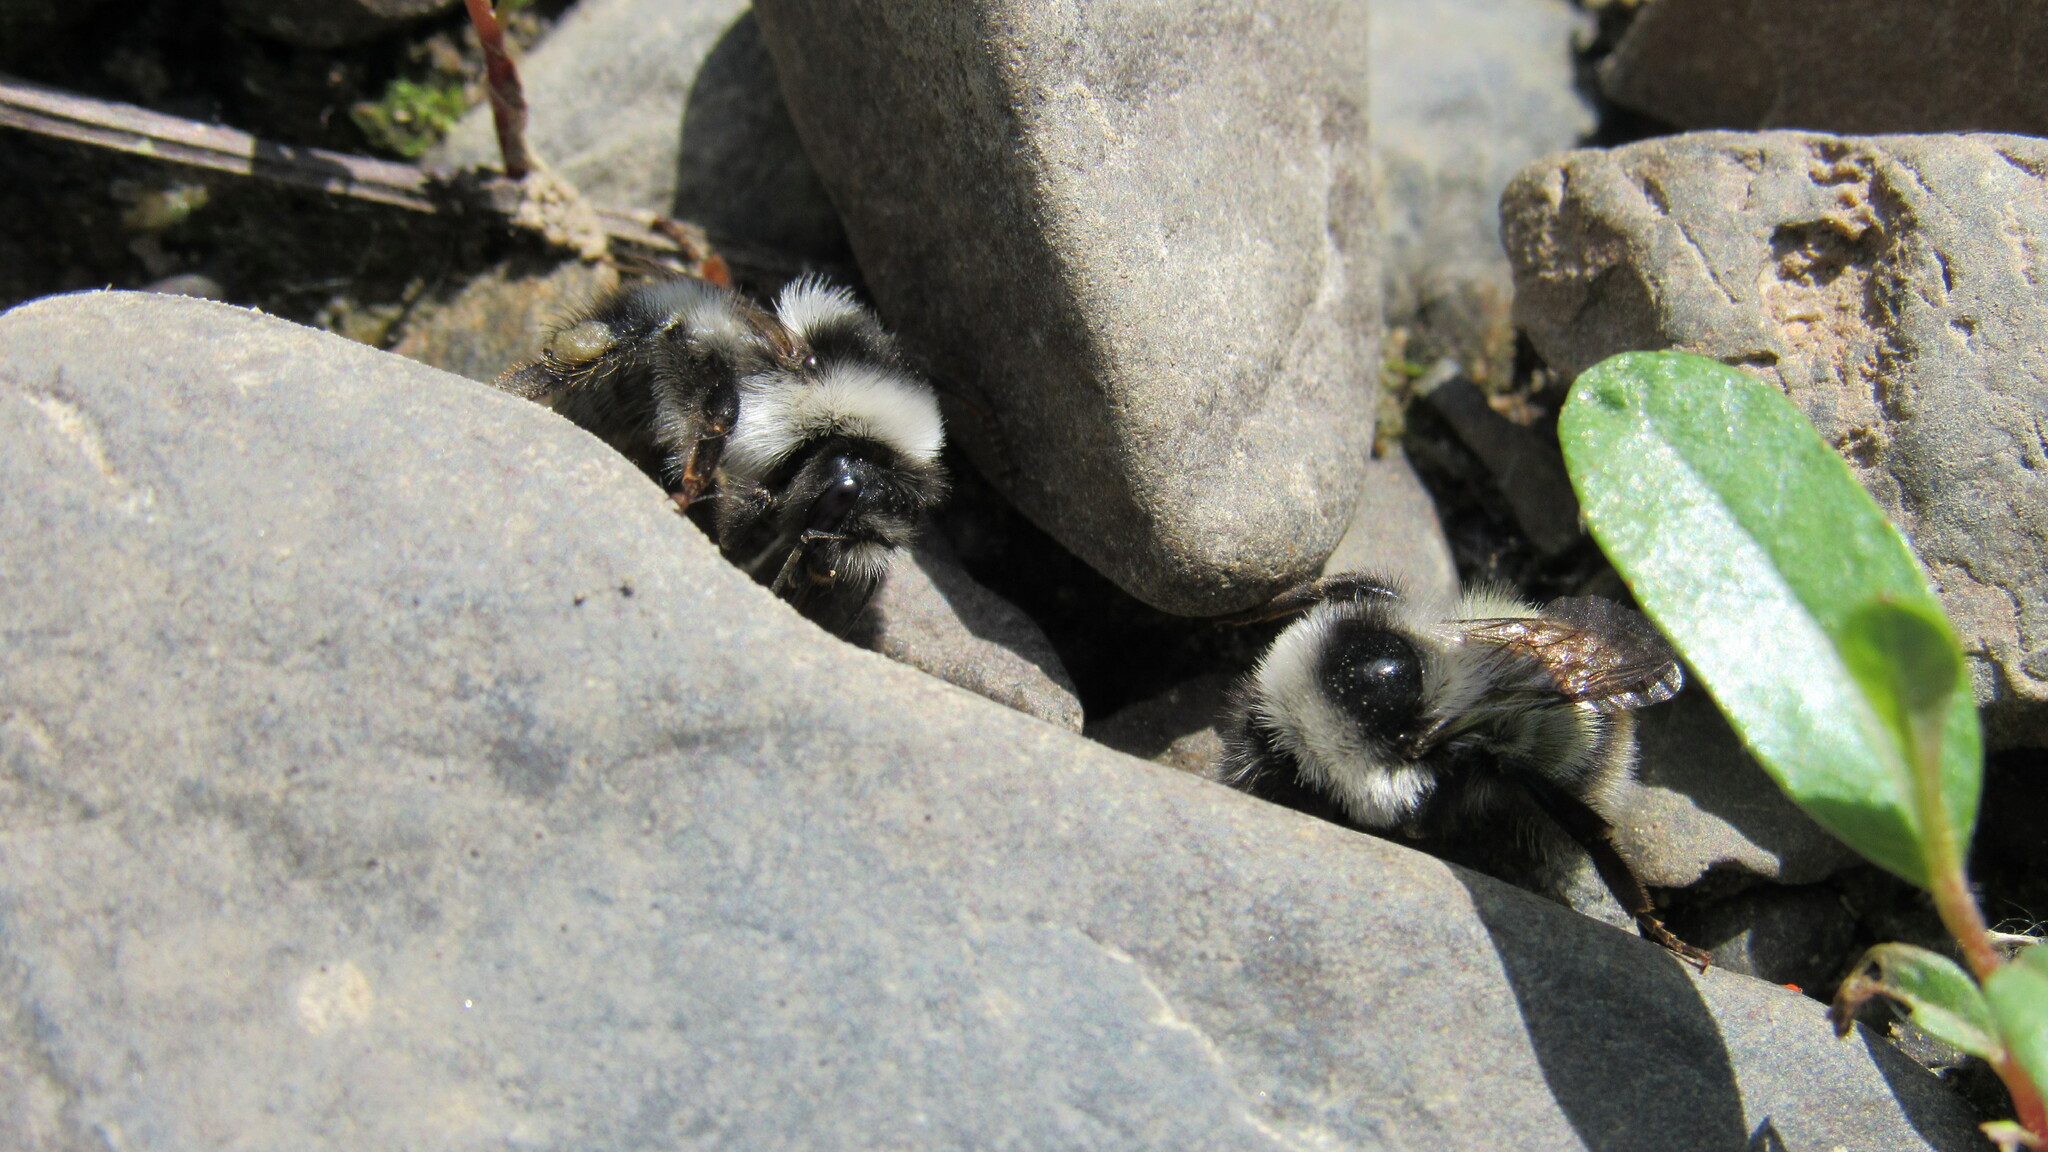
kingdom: Animalia
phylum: Arthropoda
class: Insecta
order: Hymenoptera
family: Apidae
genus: Bombus
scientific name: Bombus sichelii
